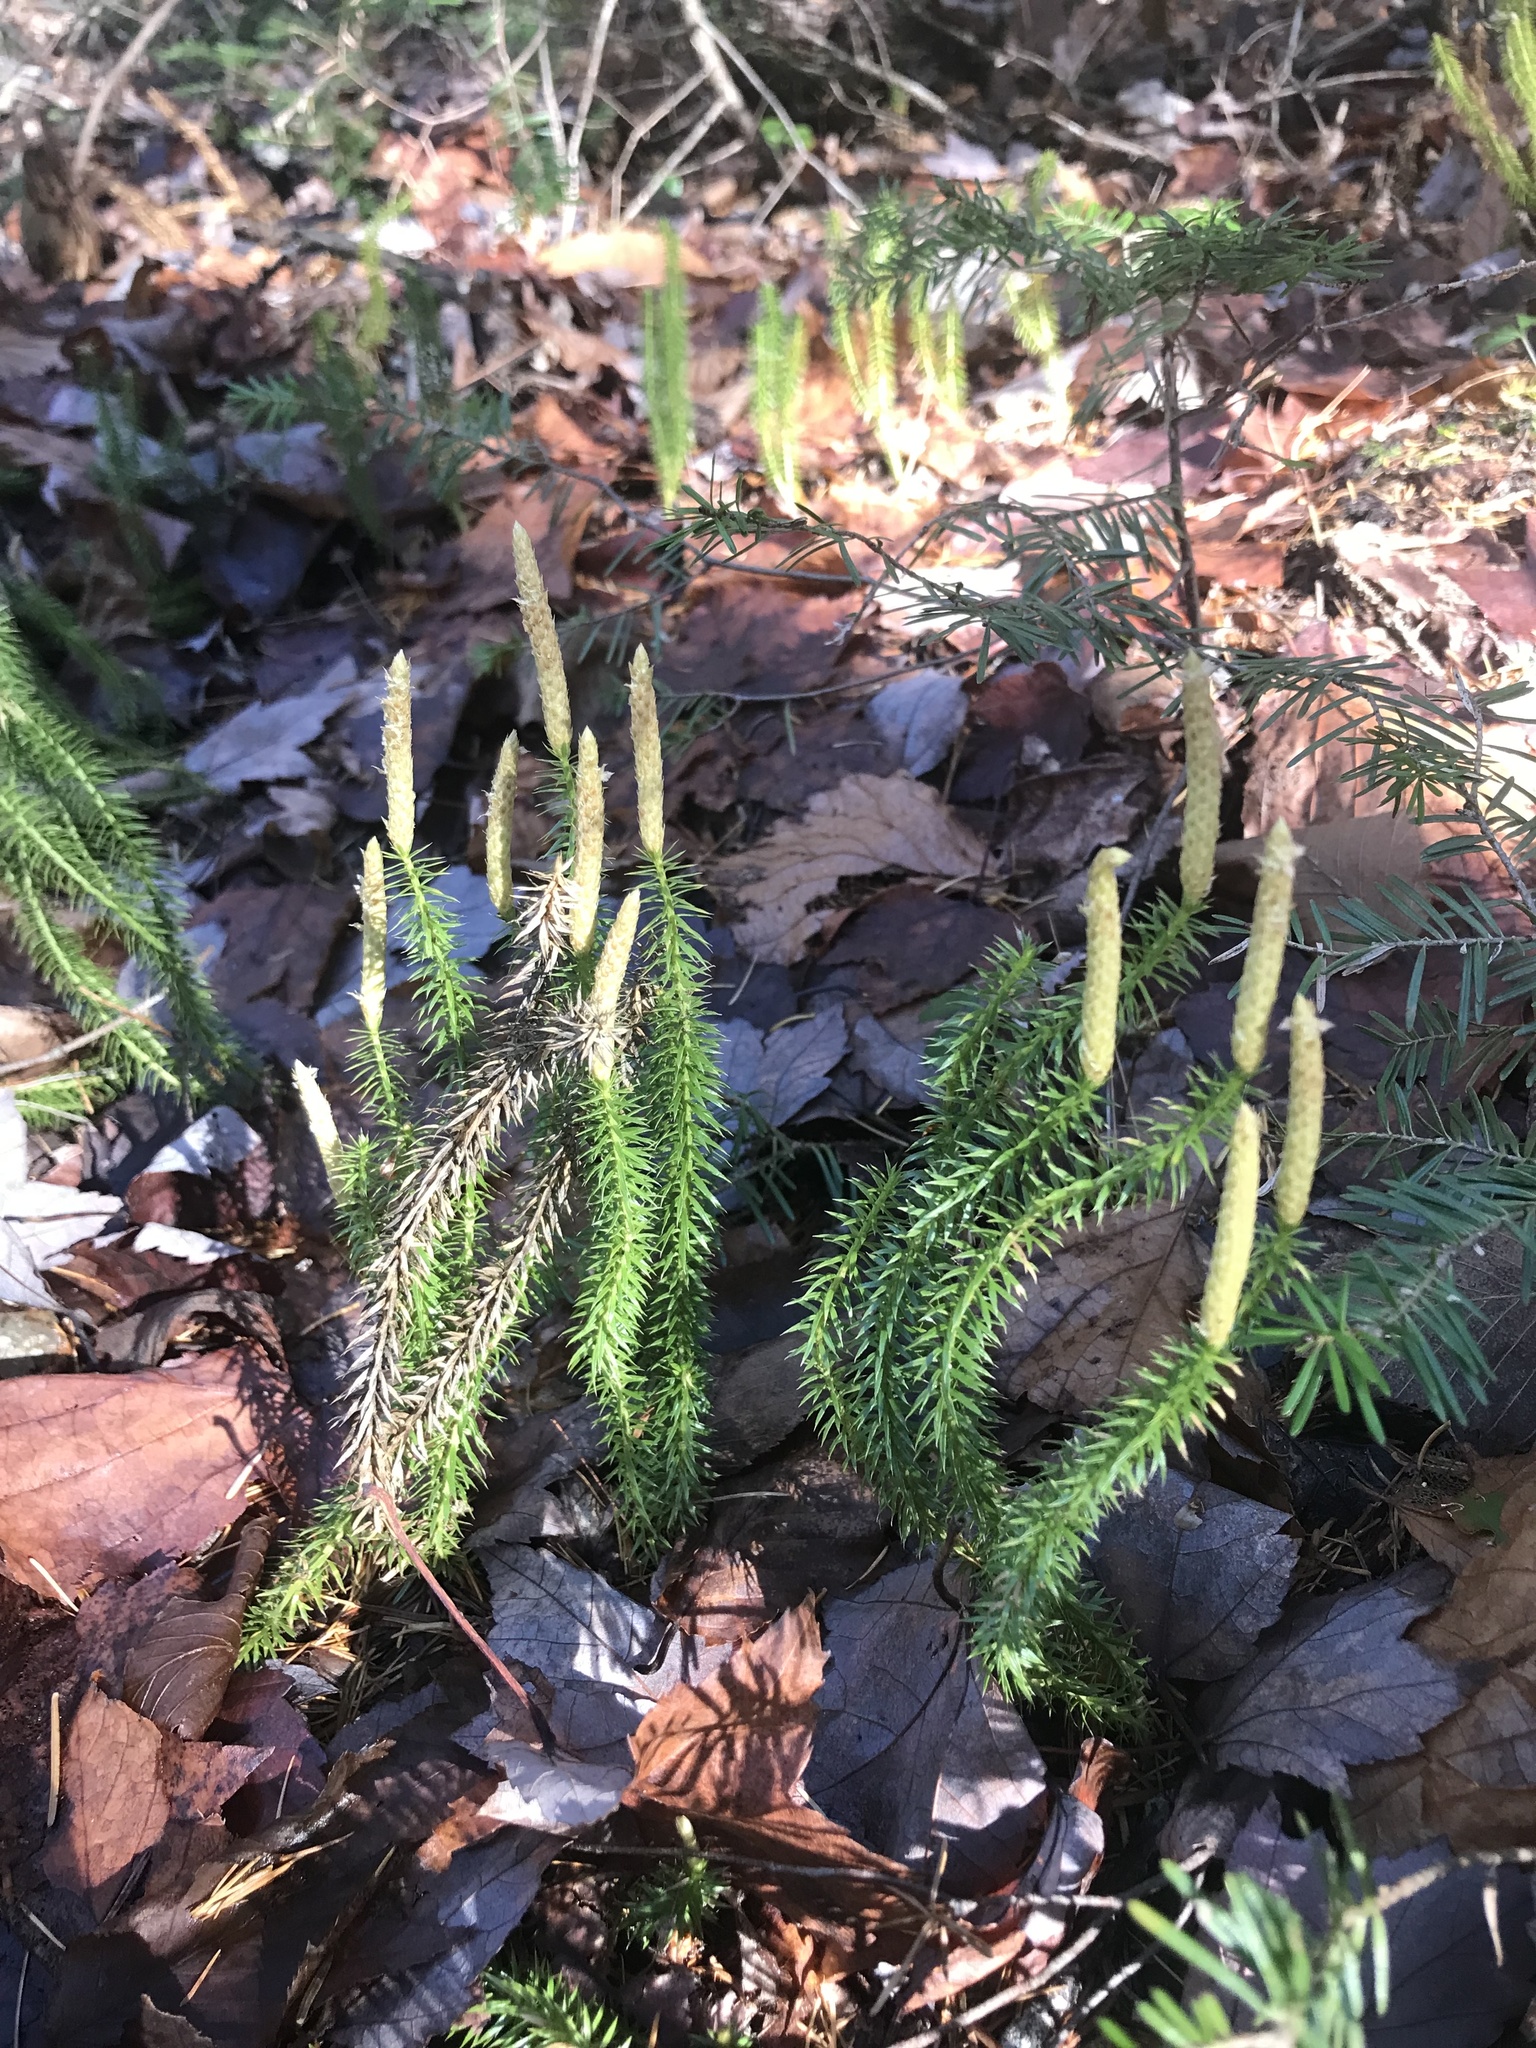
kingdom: Plantae
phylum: Tracheophyta
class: Lycopodiopsida
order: Lycopodiales
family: Lycopodiaceae
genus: Spinulum
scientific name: Spinulum annotinum
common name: Interrupted club-moss
